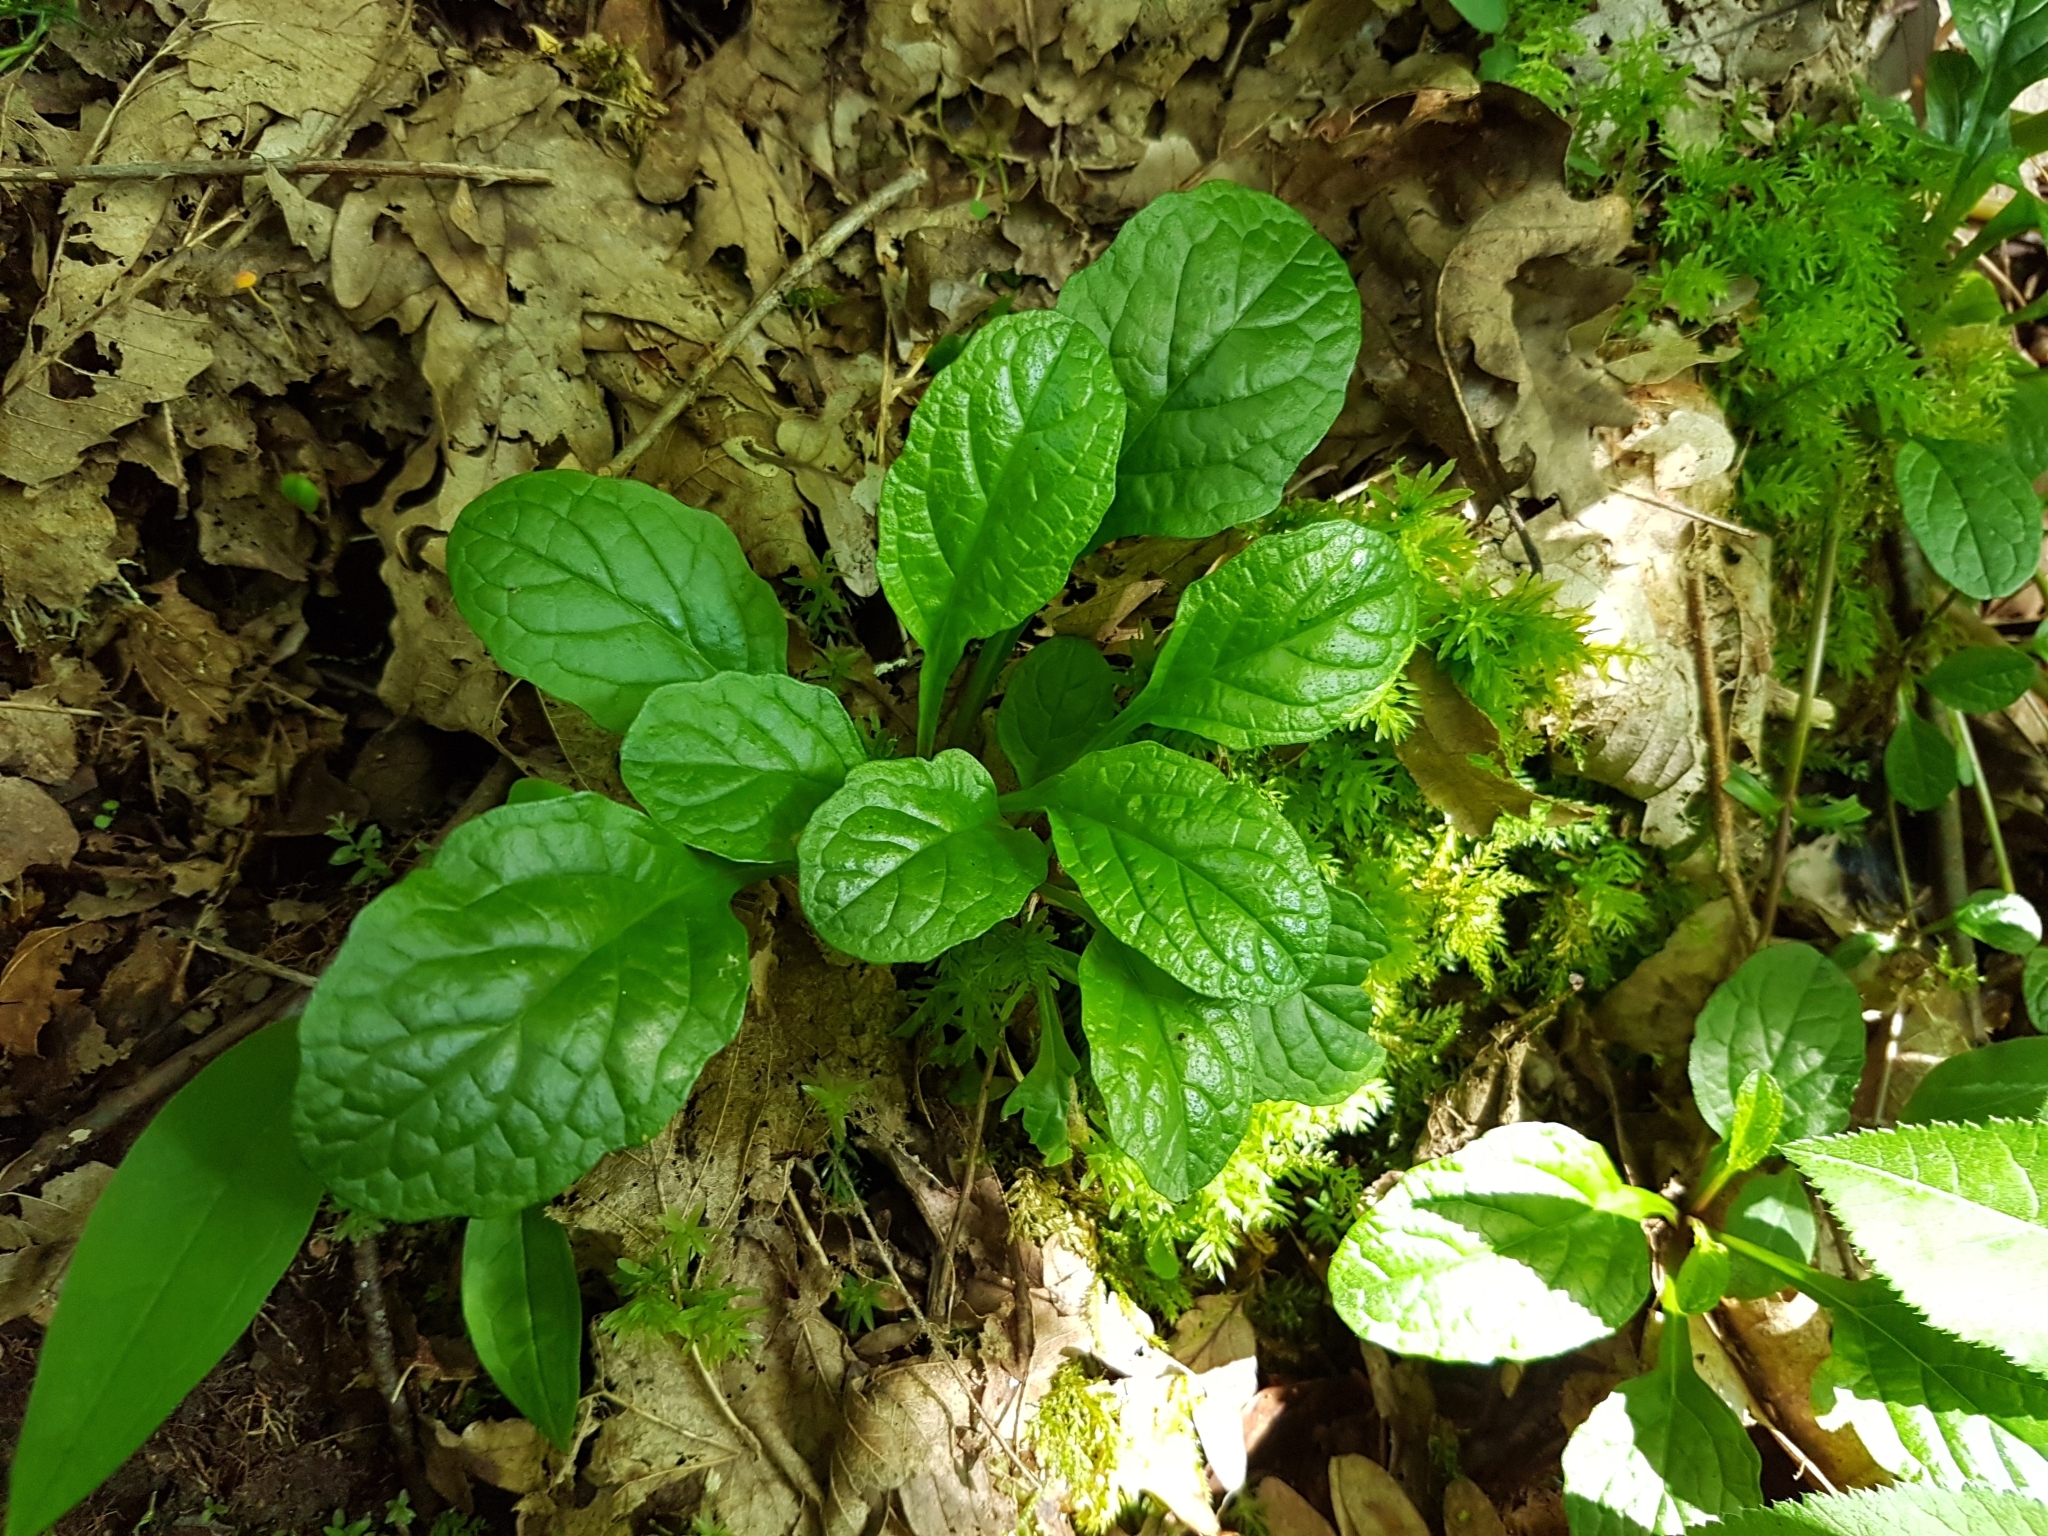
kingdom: Plantae
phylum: Tracheophyta
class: Magnoliopsida
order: Lamiales
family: Lamiaceae
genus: Ajuga
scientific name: Ajuga reptans
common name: Bugle
